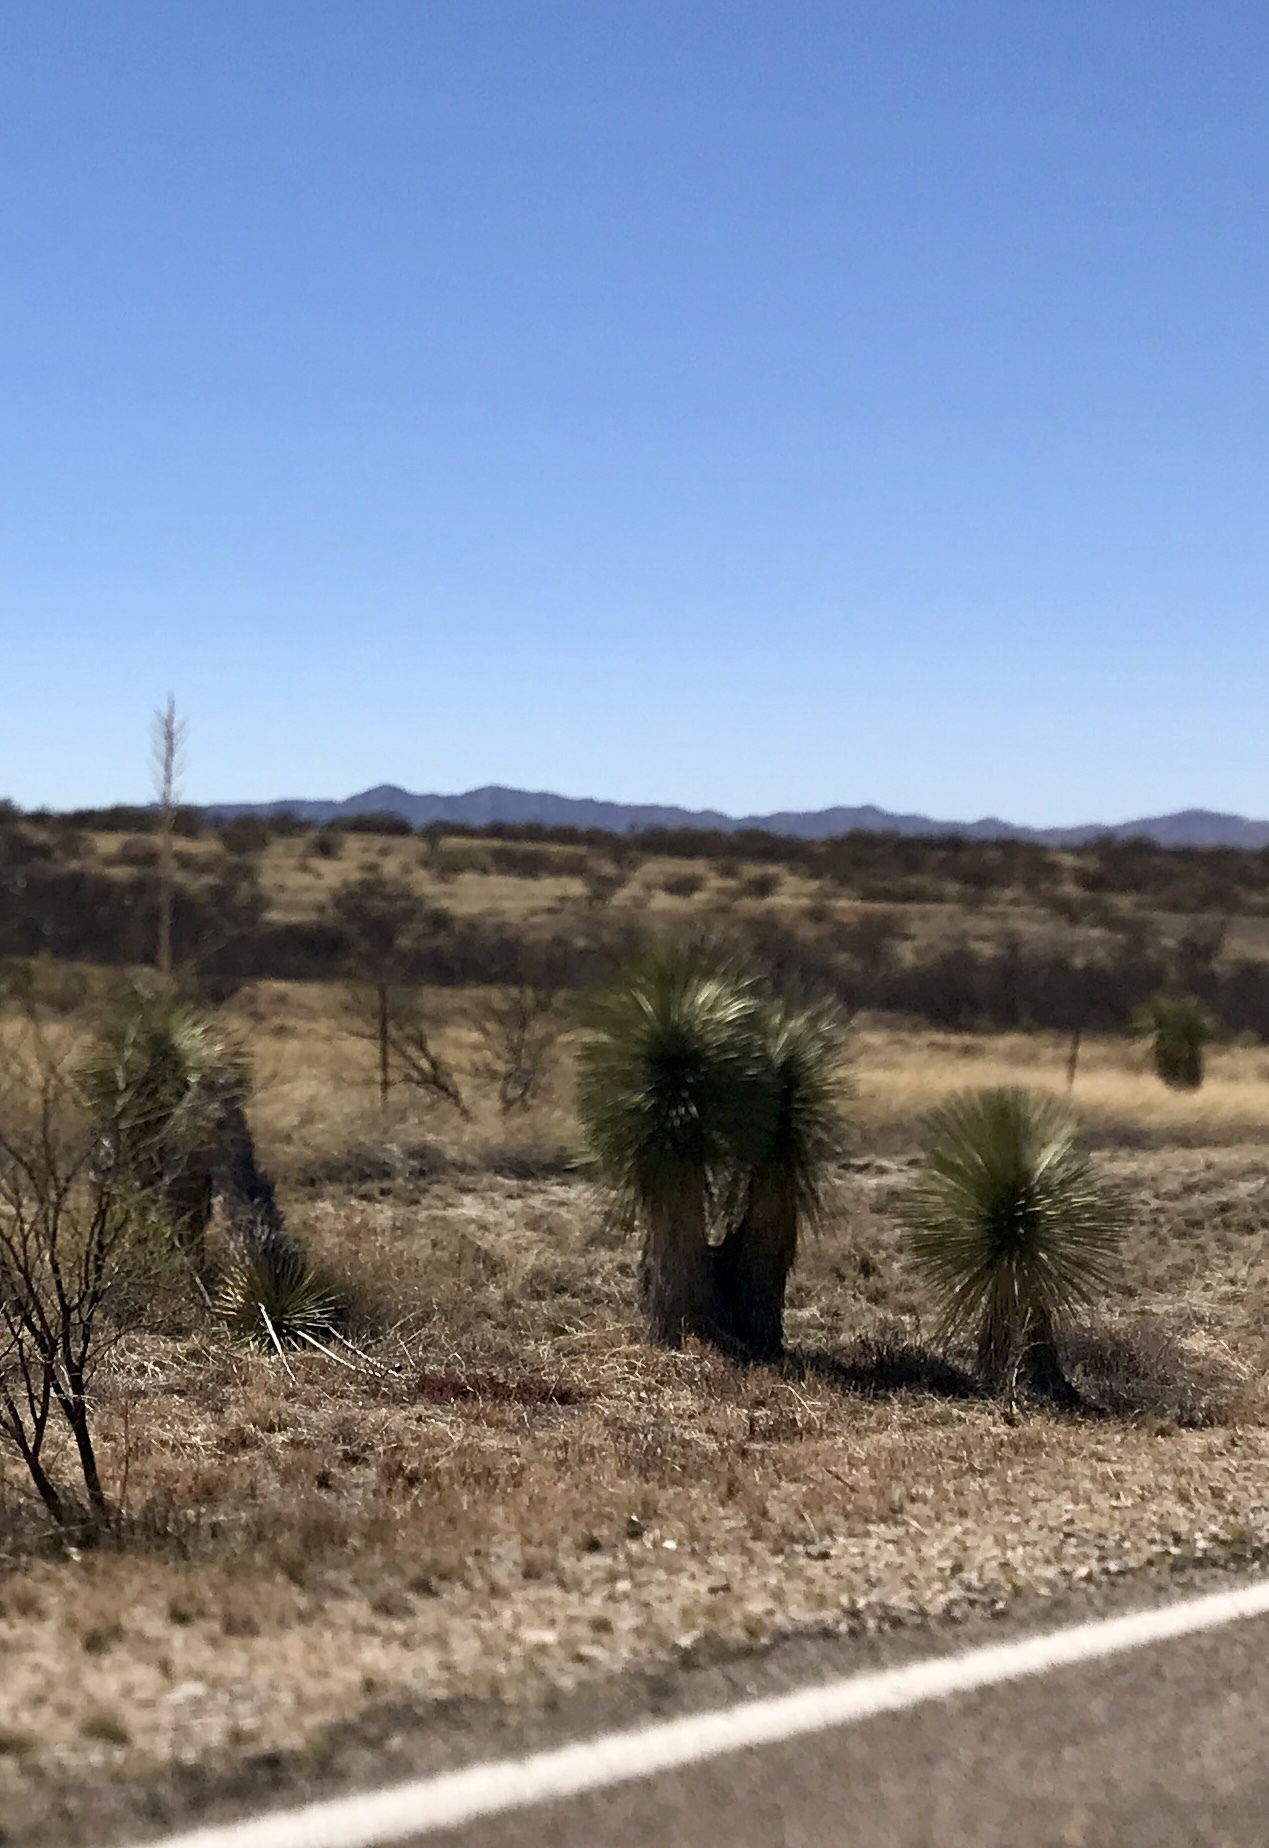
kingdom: Plantae
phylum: Tracheophyta
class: Liliopsida
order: Asparagales
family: Asparagaceae
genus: Yucca
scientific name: Yucca elata
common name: Palmella
